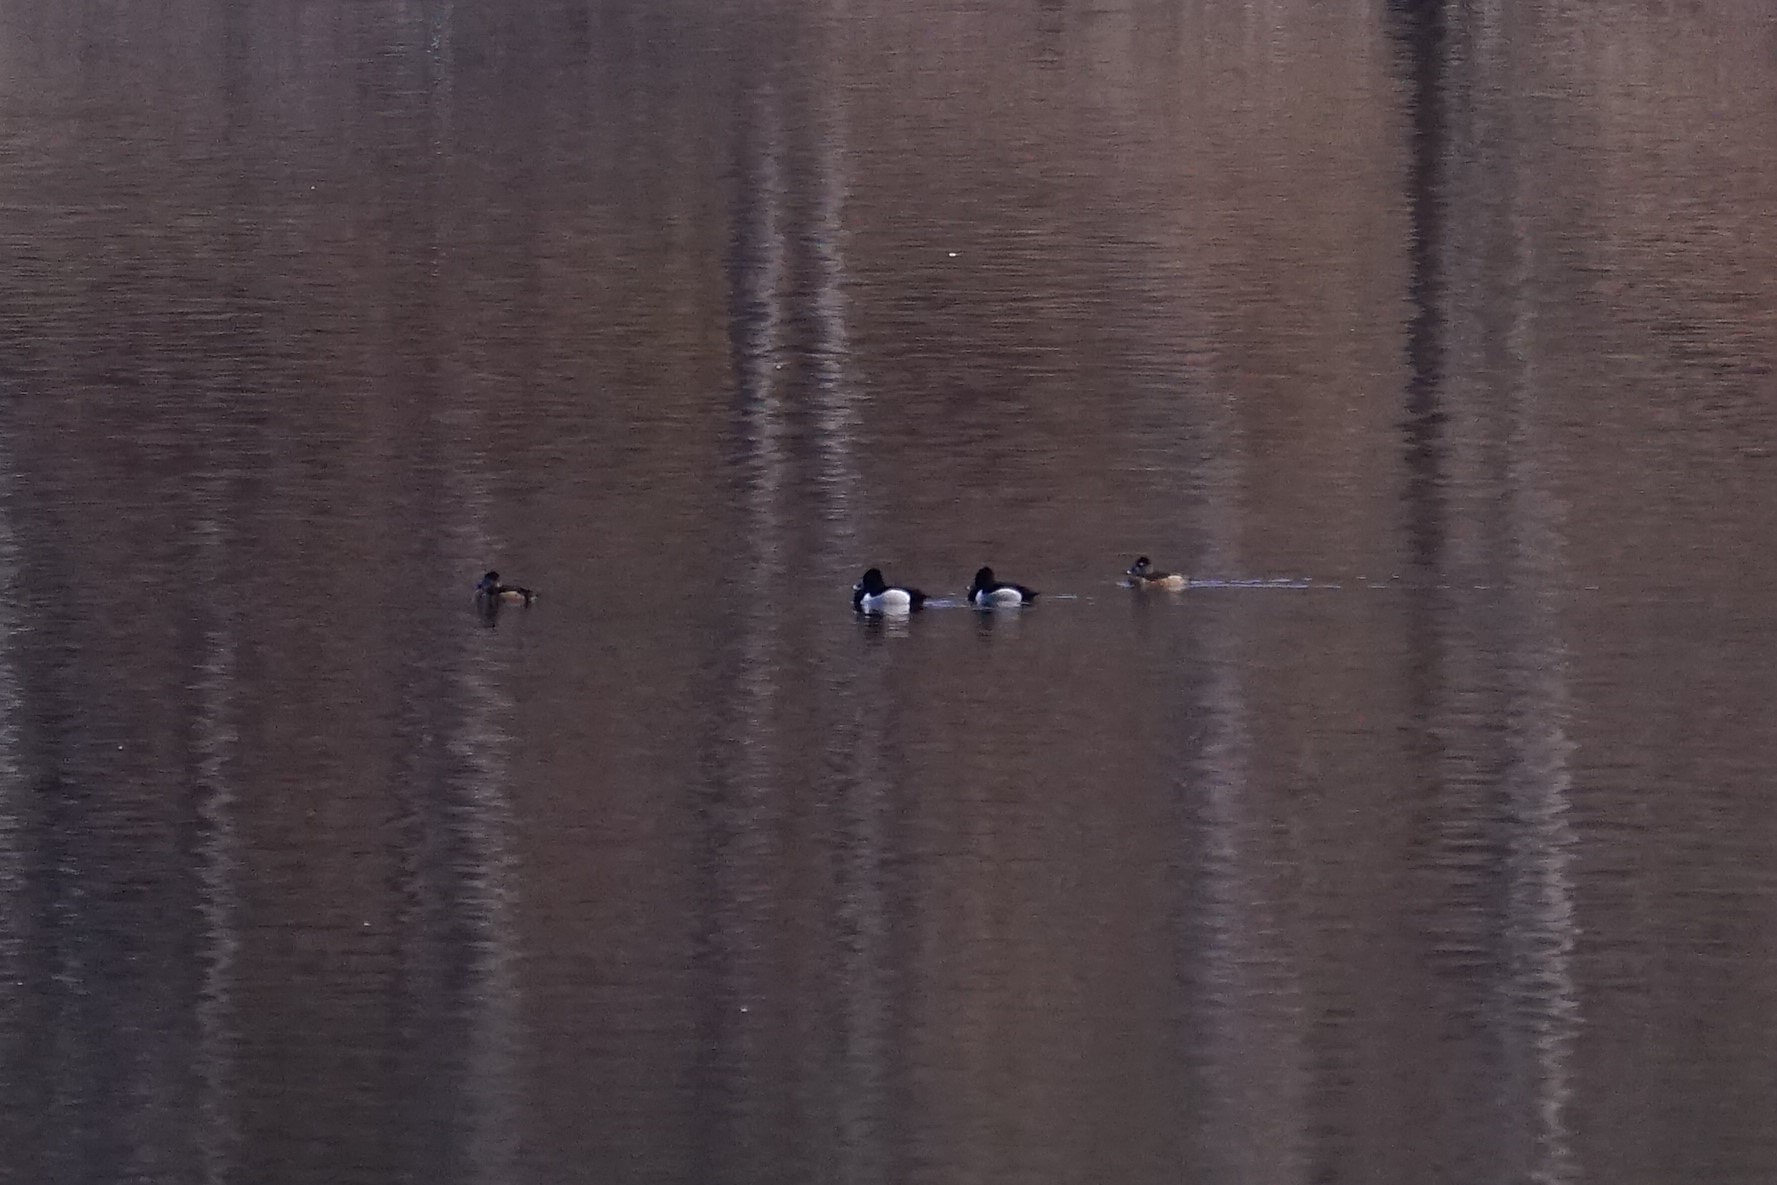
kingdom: Animalia
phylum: Chordata
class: Aves
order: Anseriformes
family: Anatidae
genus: Aythya
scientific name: Aythya collaris
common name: Ring-necked duck
